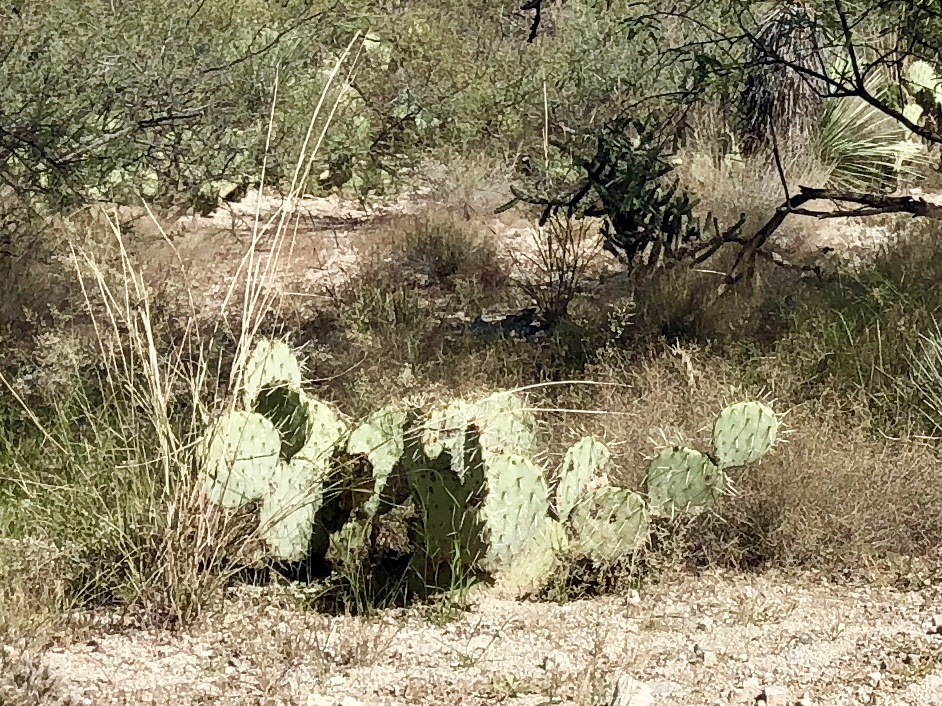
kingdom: Plantae
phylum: Tracheophyta
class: Magnoliopsida
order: Caryophyllales
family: Cactaceae
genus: Opuntia
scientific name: Opuntia engelmannii
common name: Cactus-apple
